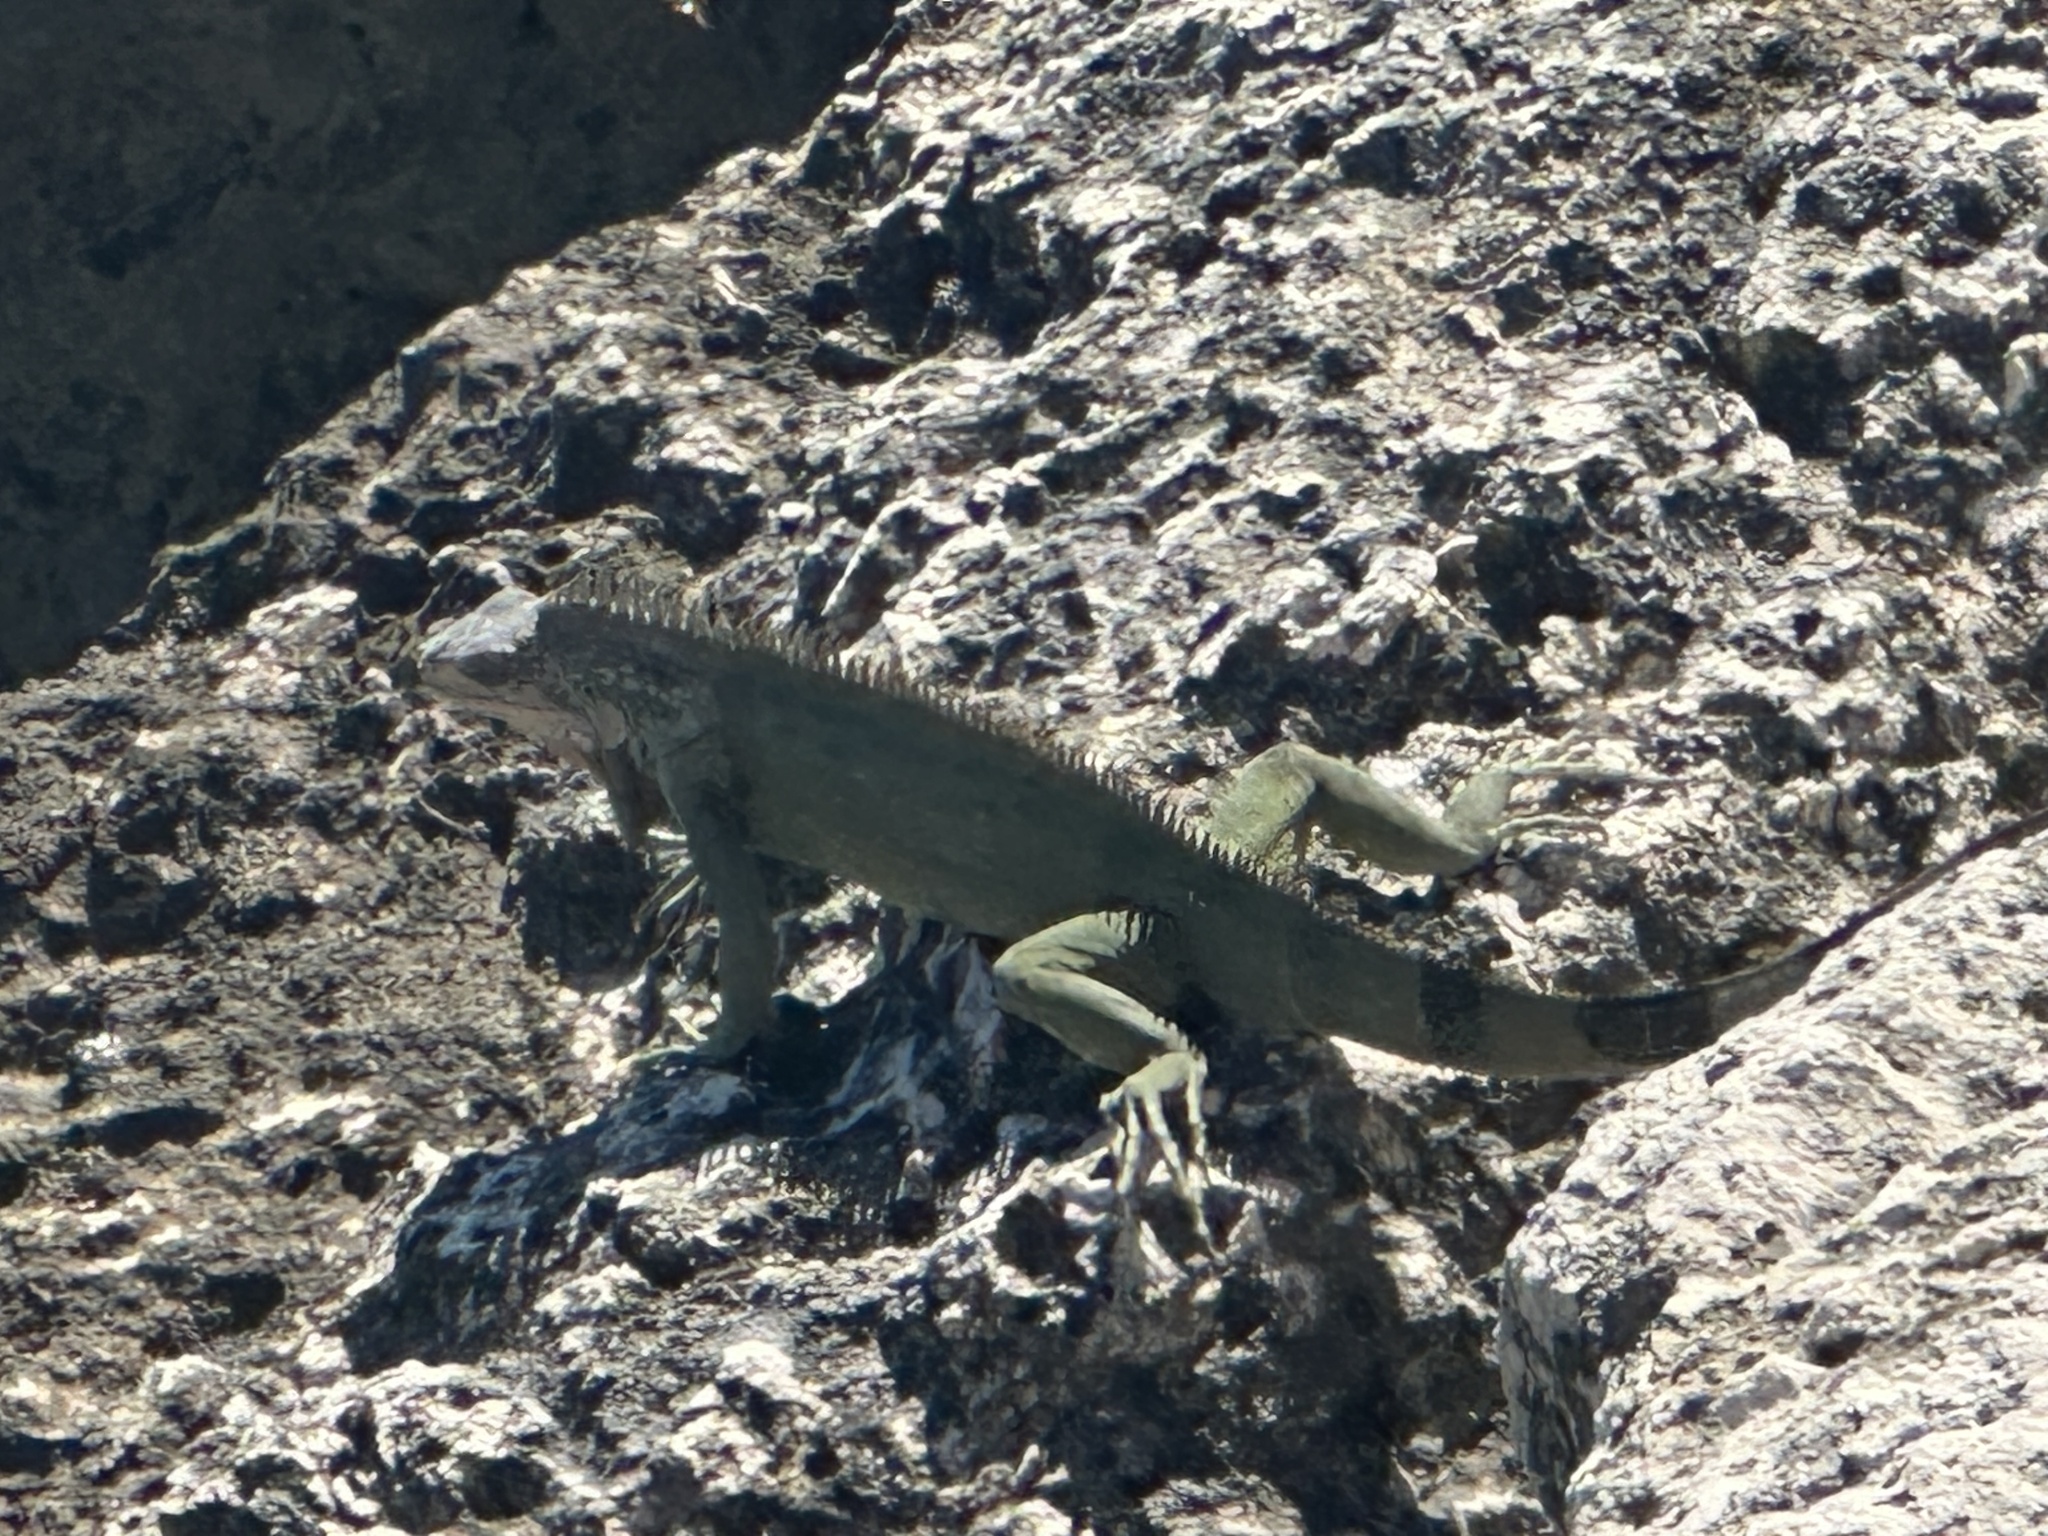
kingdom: Animalia
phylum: Chordata
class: Squamata
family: Iguanidae
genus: Iguana
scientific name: Iguana iguana
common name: Green iguana
